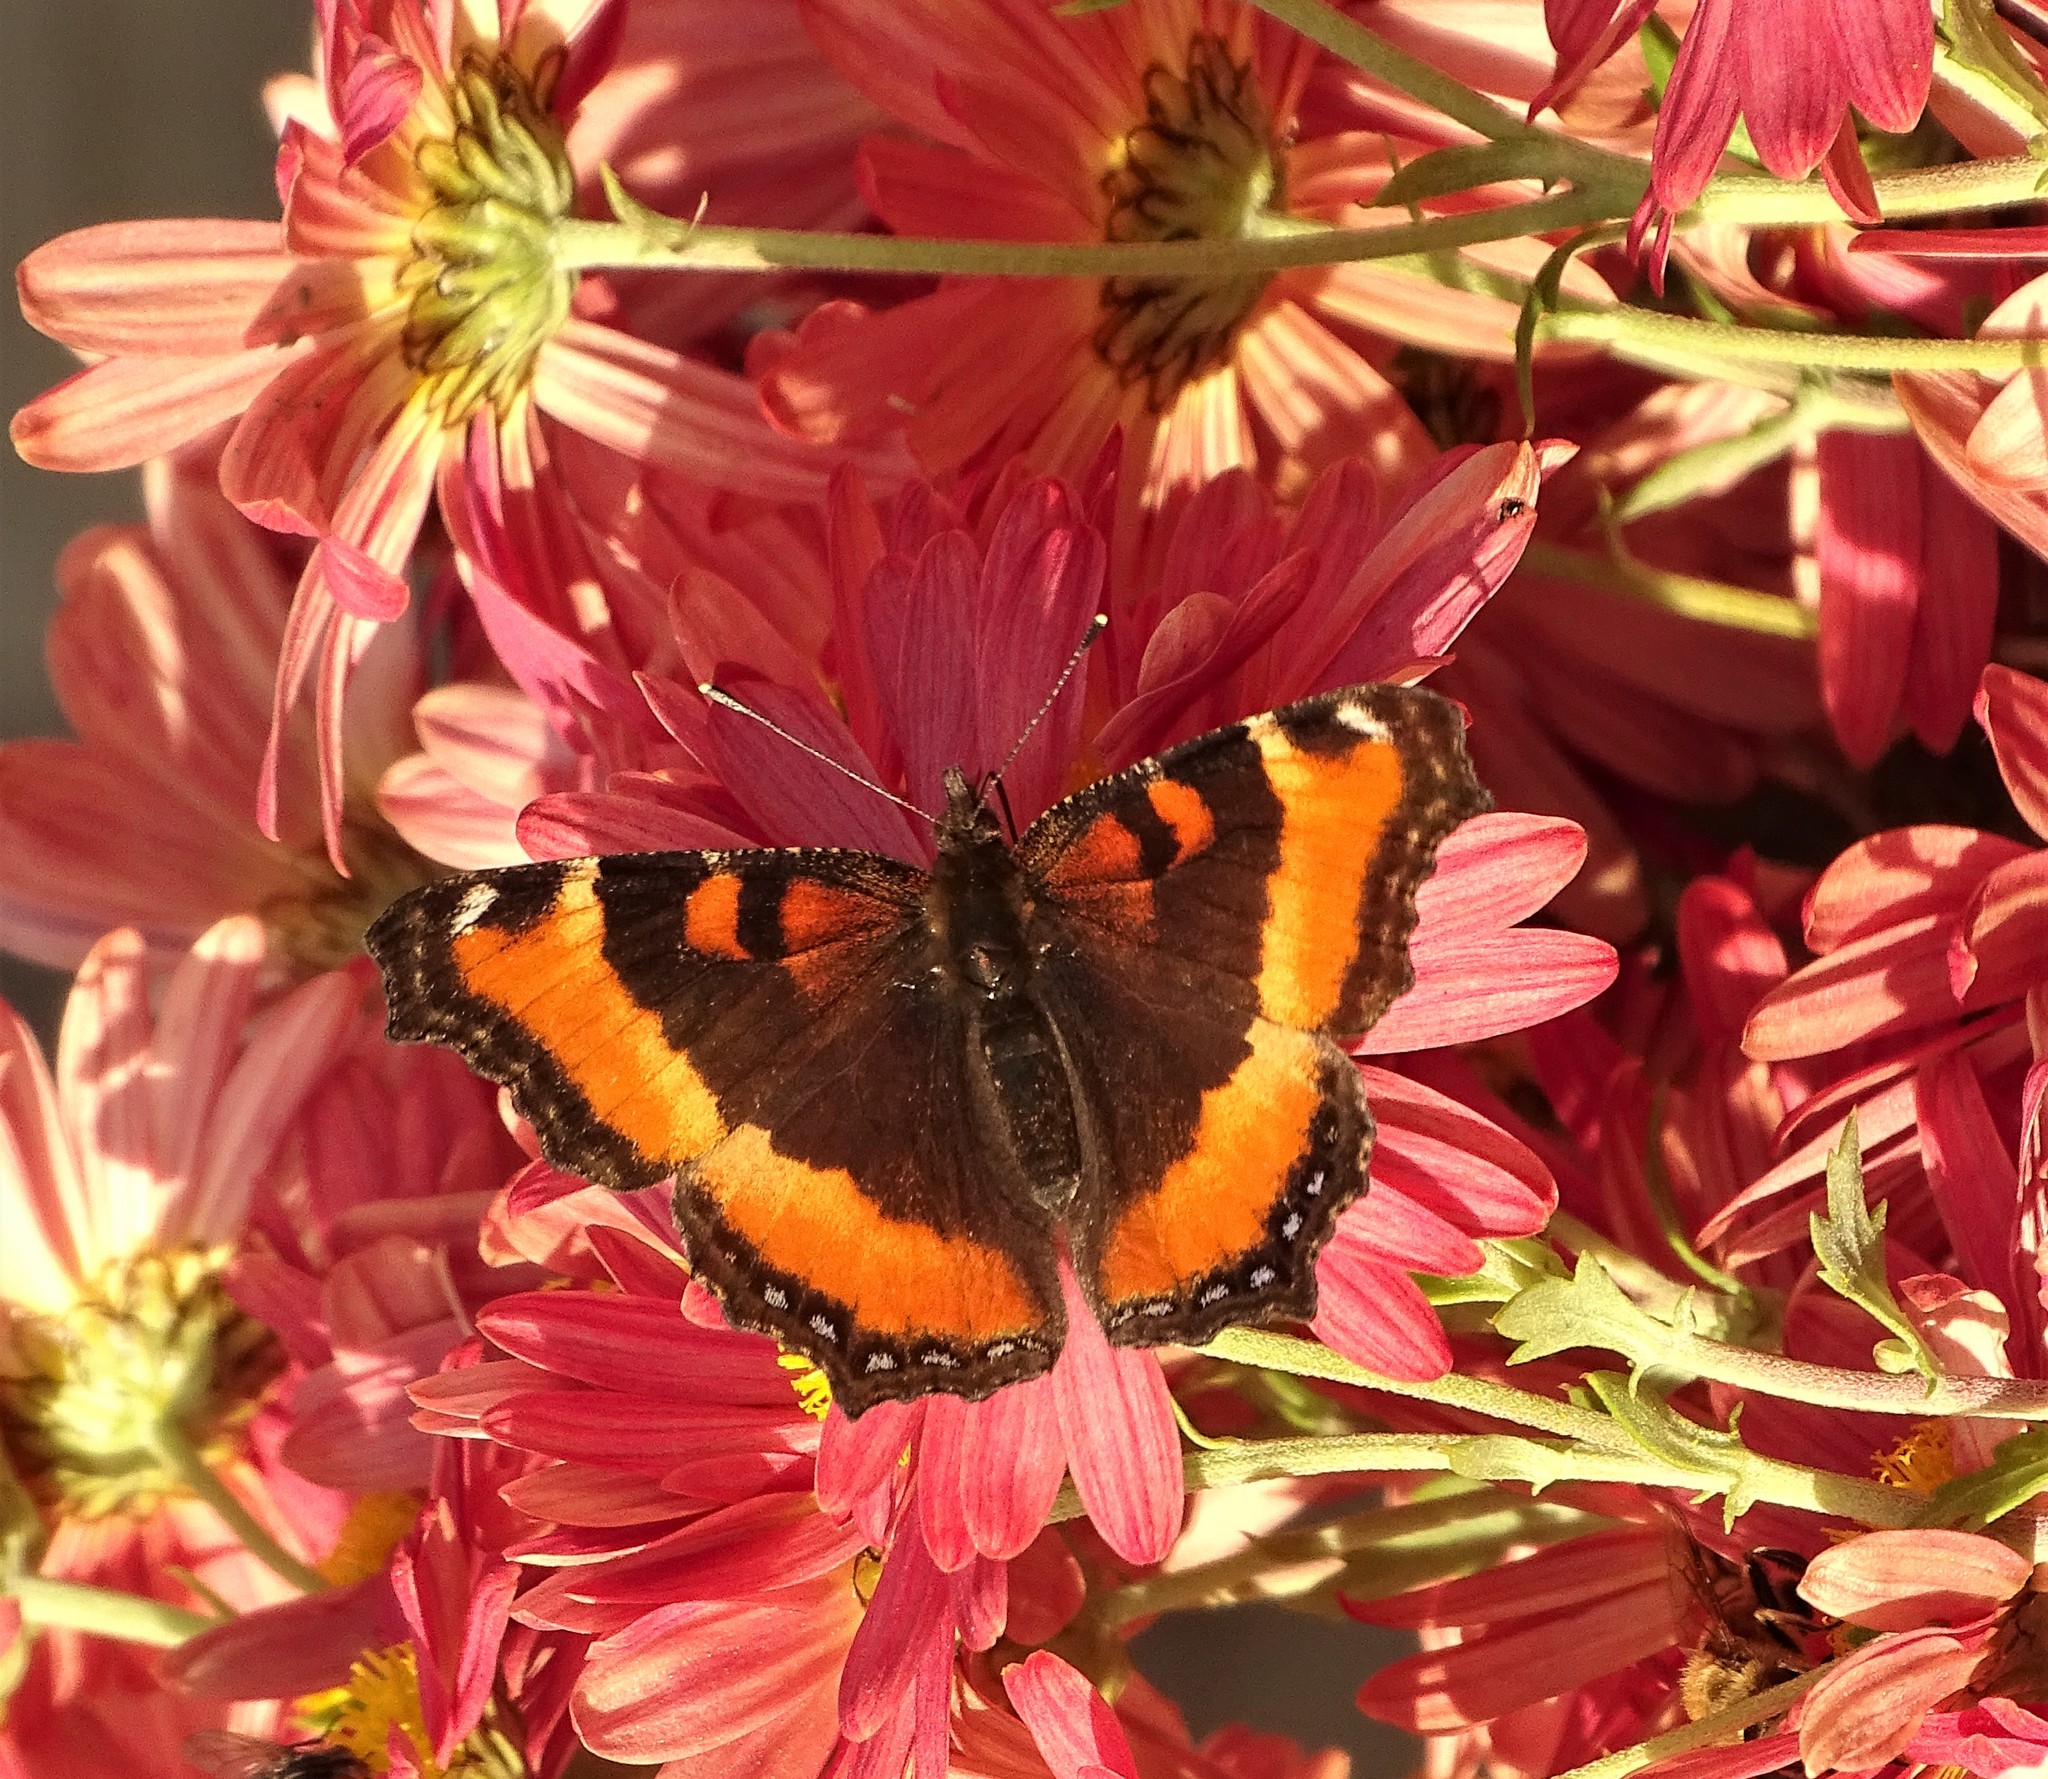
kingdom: Animalia
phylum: Arthropoda
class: Insecta
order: Lepidoptera
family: Nymphalidae
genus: Aglais
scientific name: Aglais milberti
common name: Milbert's tortoiseshell
